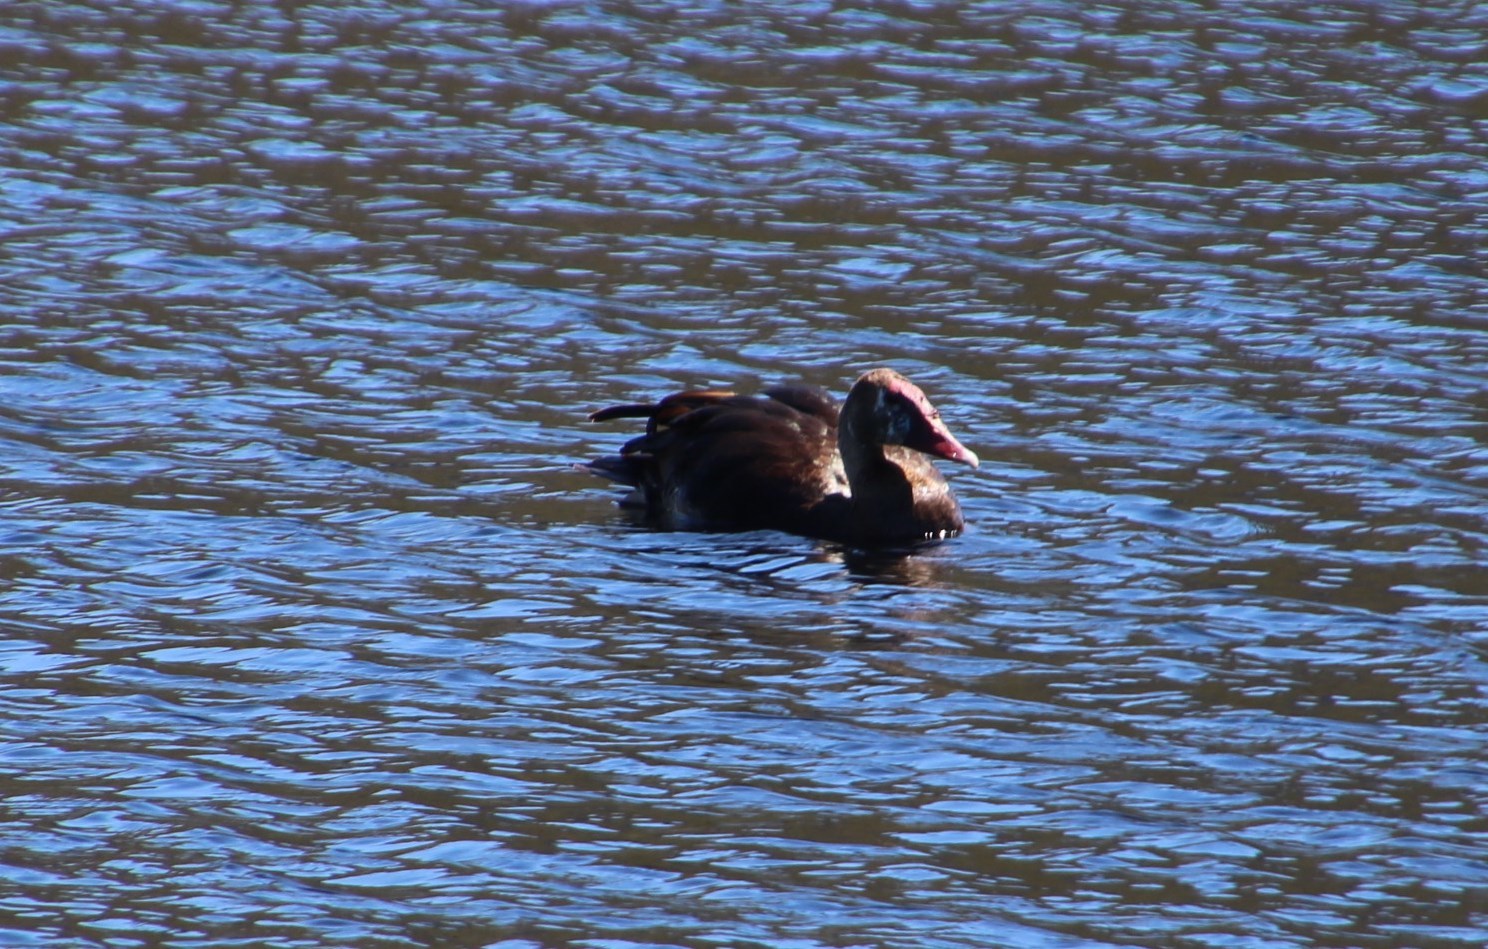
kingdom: Animalia
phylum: Chordata
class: Aves
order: Anseriformes
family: Anatidae
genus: Plectropterus
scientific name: Plectropterus gambensis
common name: Spur-winged goose
